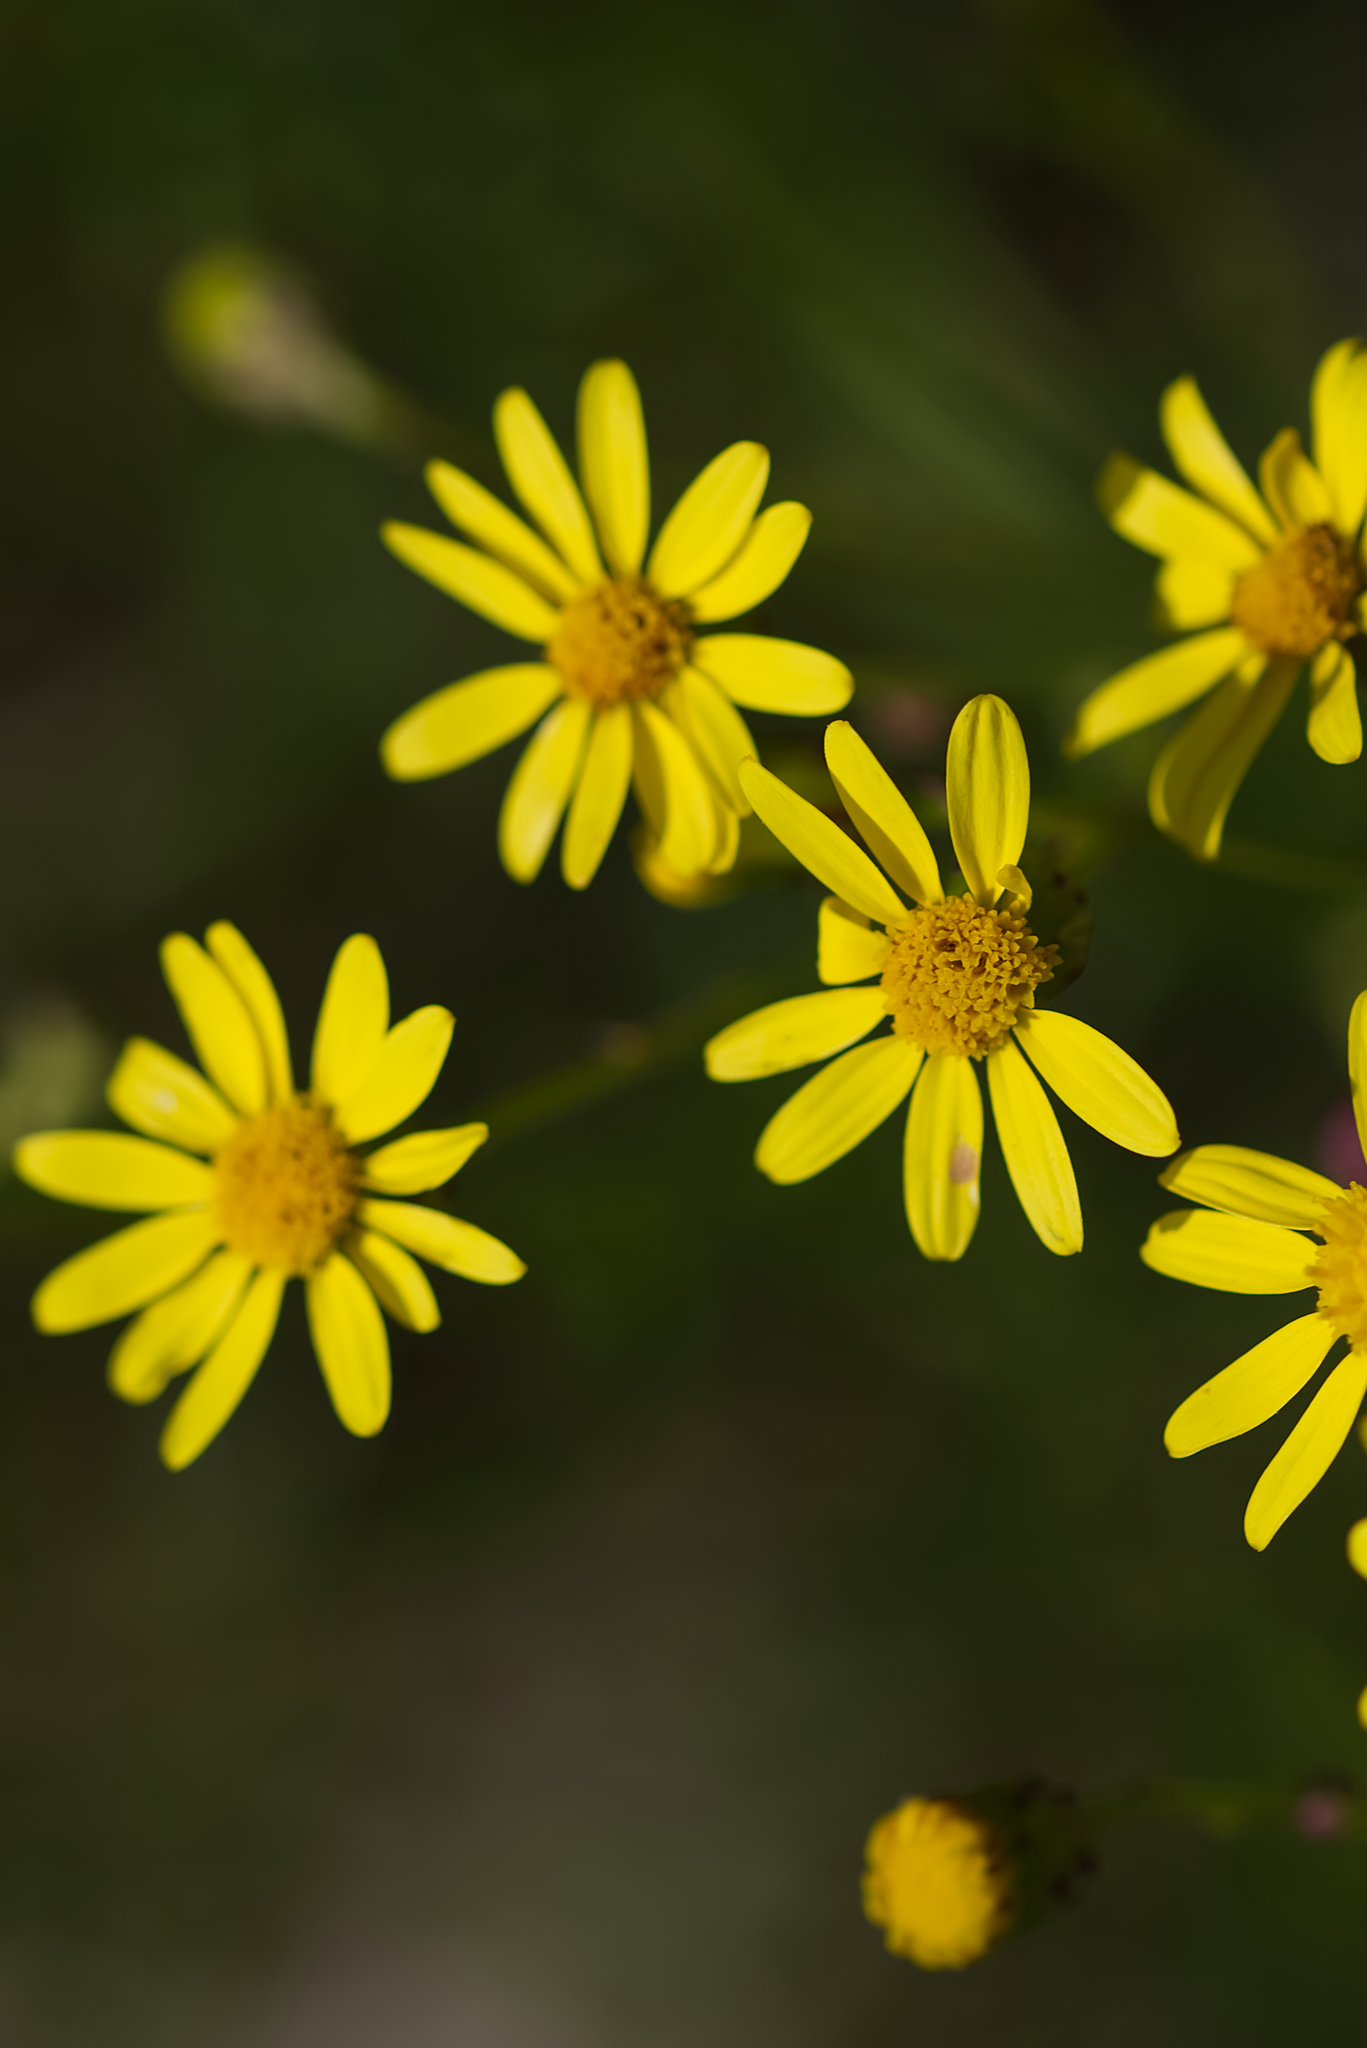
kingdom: Plantae
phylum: Tracheophyta
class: Magnoliopsida
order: Asterales
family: Asteraceae
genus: Senecio
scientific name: Senecio inaequidens
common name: Narrow-leaved ragwort
